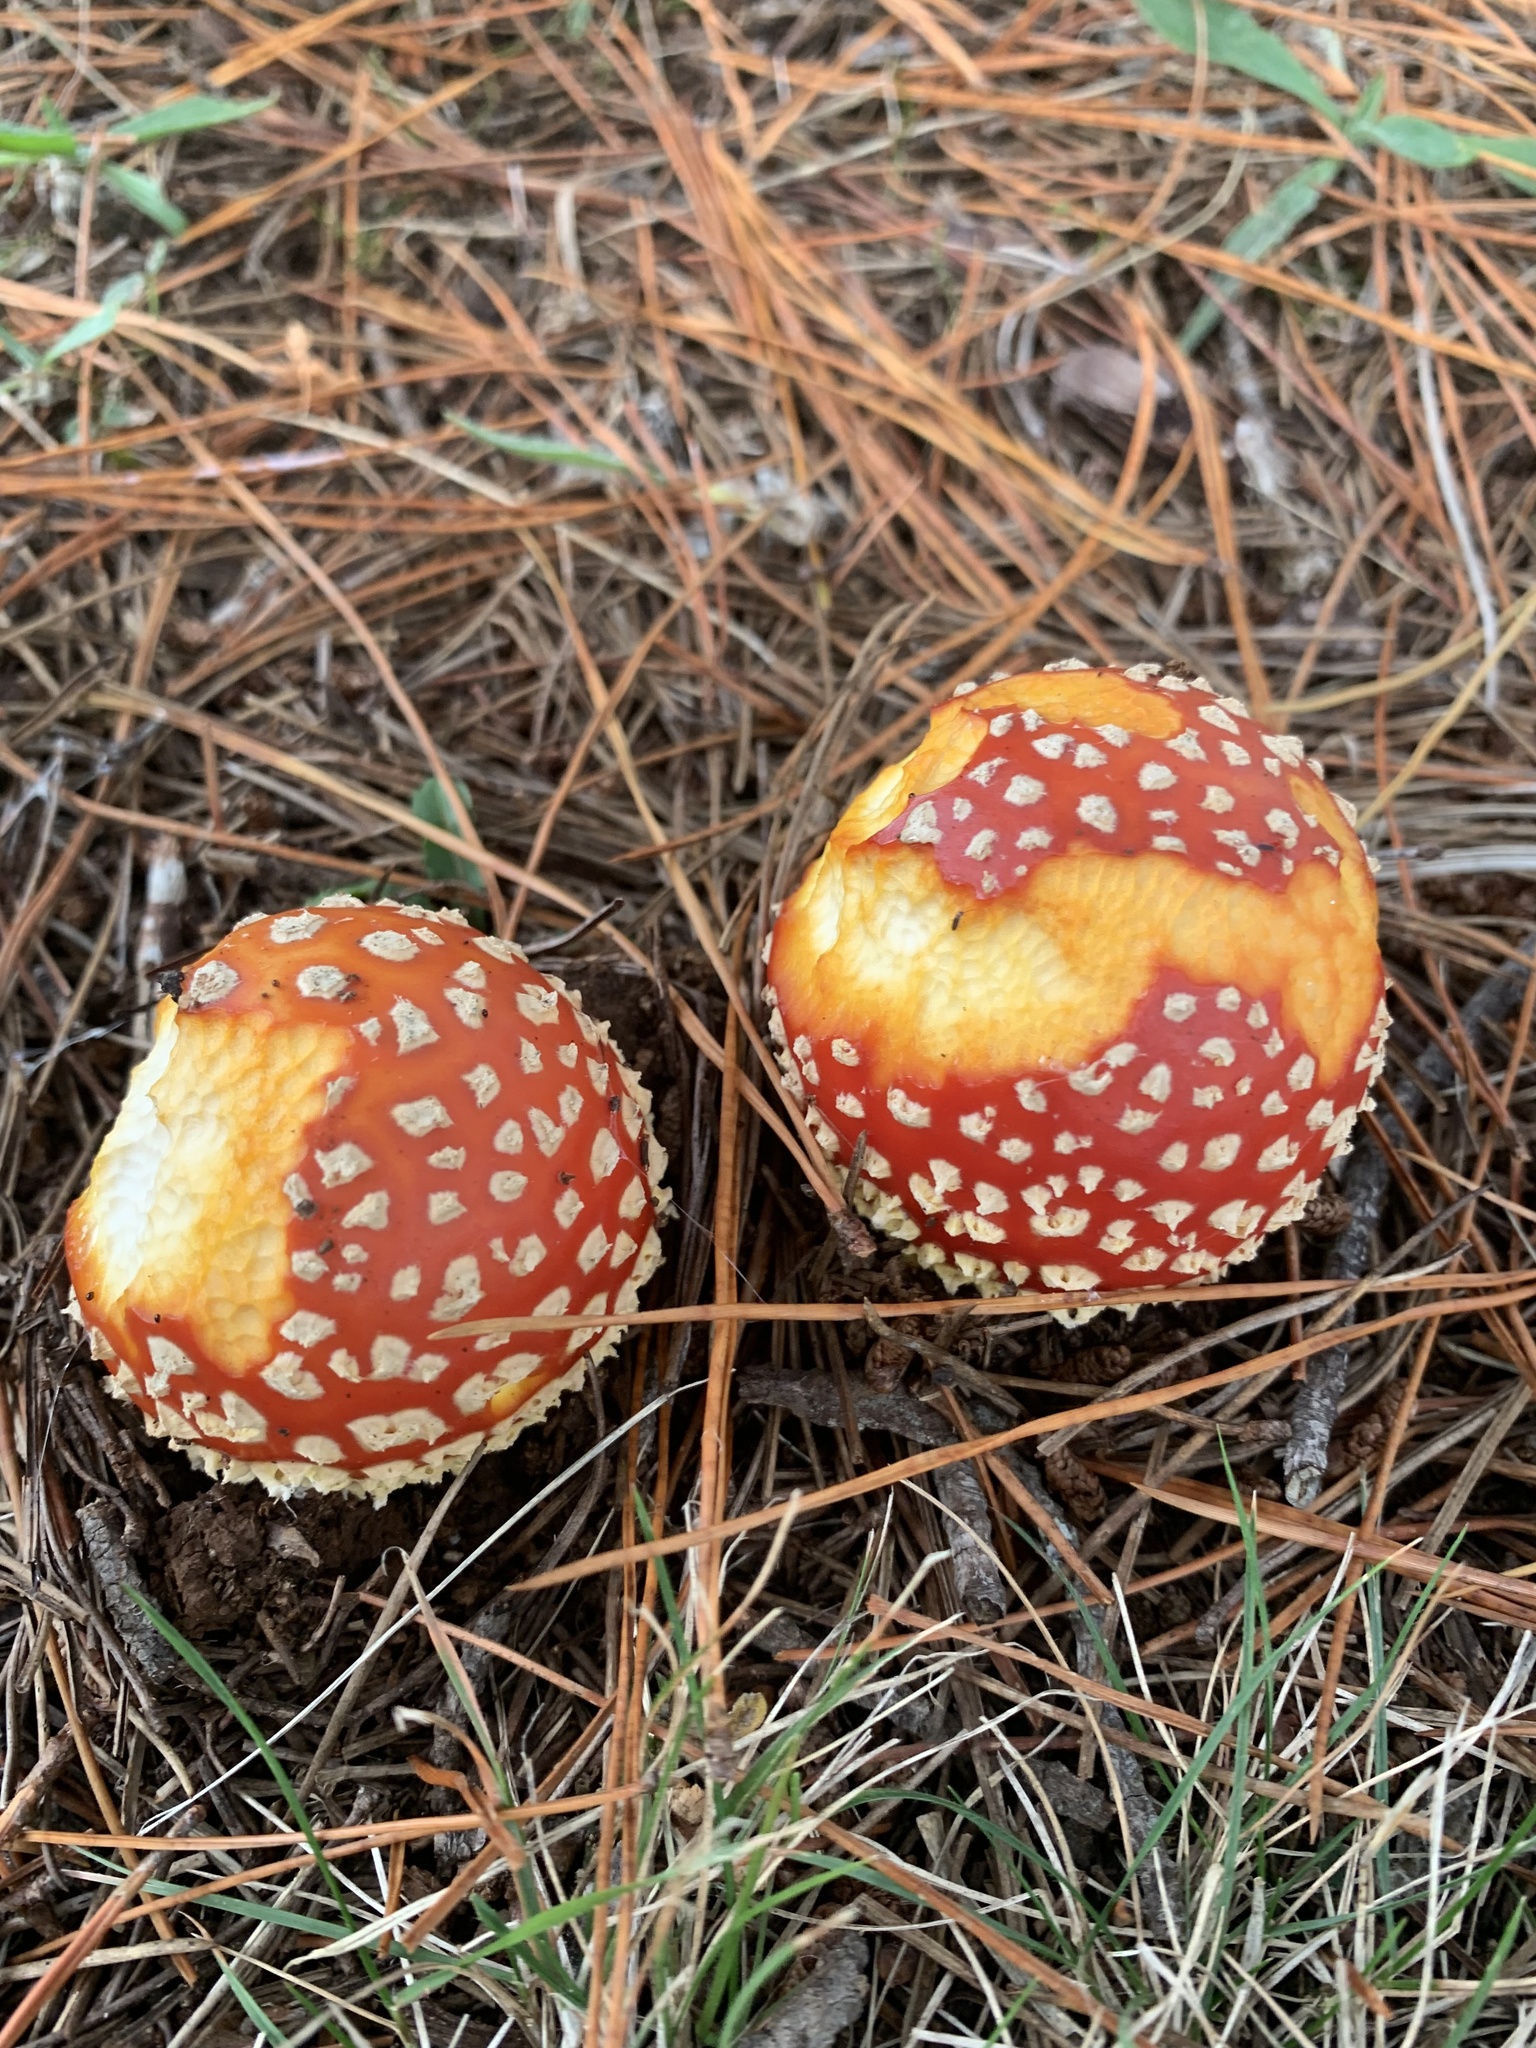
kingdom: Fungi
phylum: Basidiomycota
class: Agaricomycetes
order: Agaricales
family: Amanitaceae
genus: Amanita
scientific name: Amanita muscaria
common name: Fly agaric
